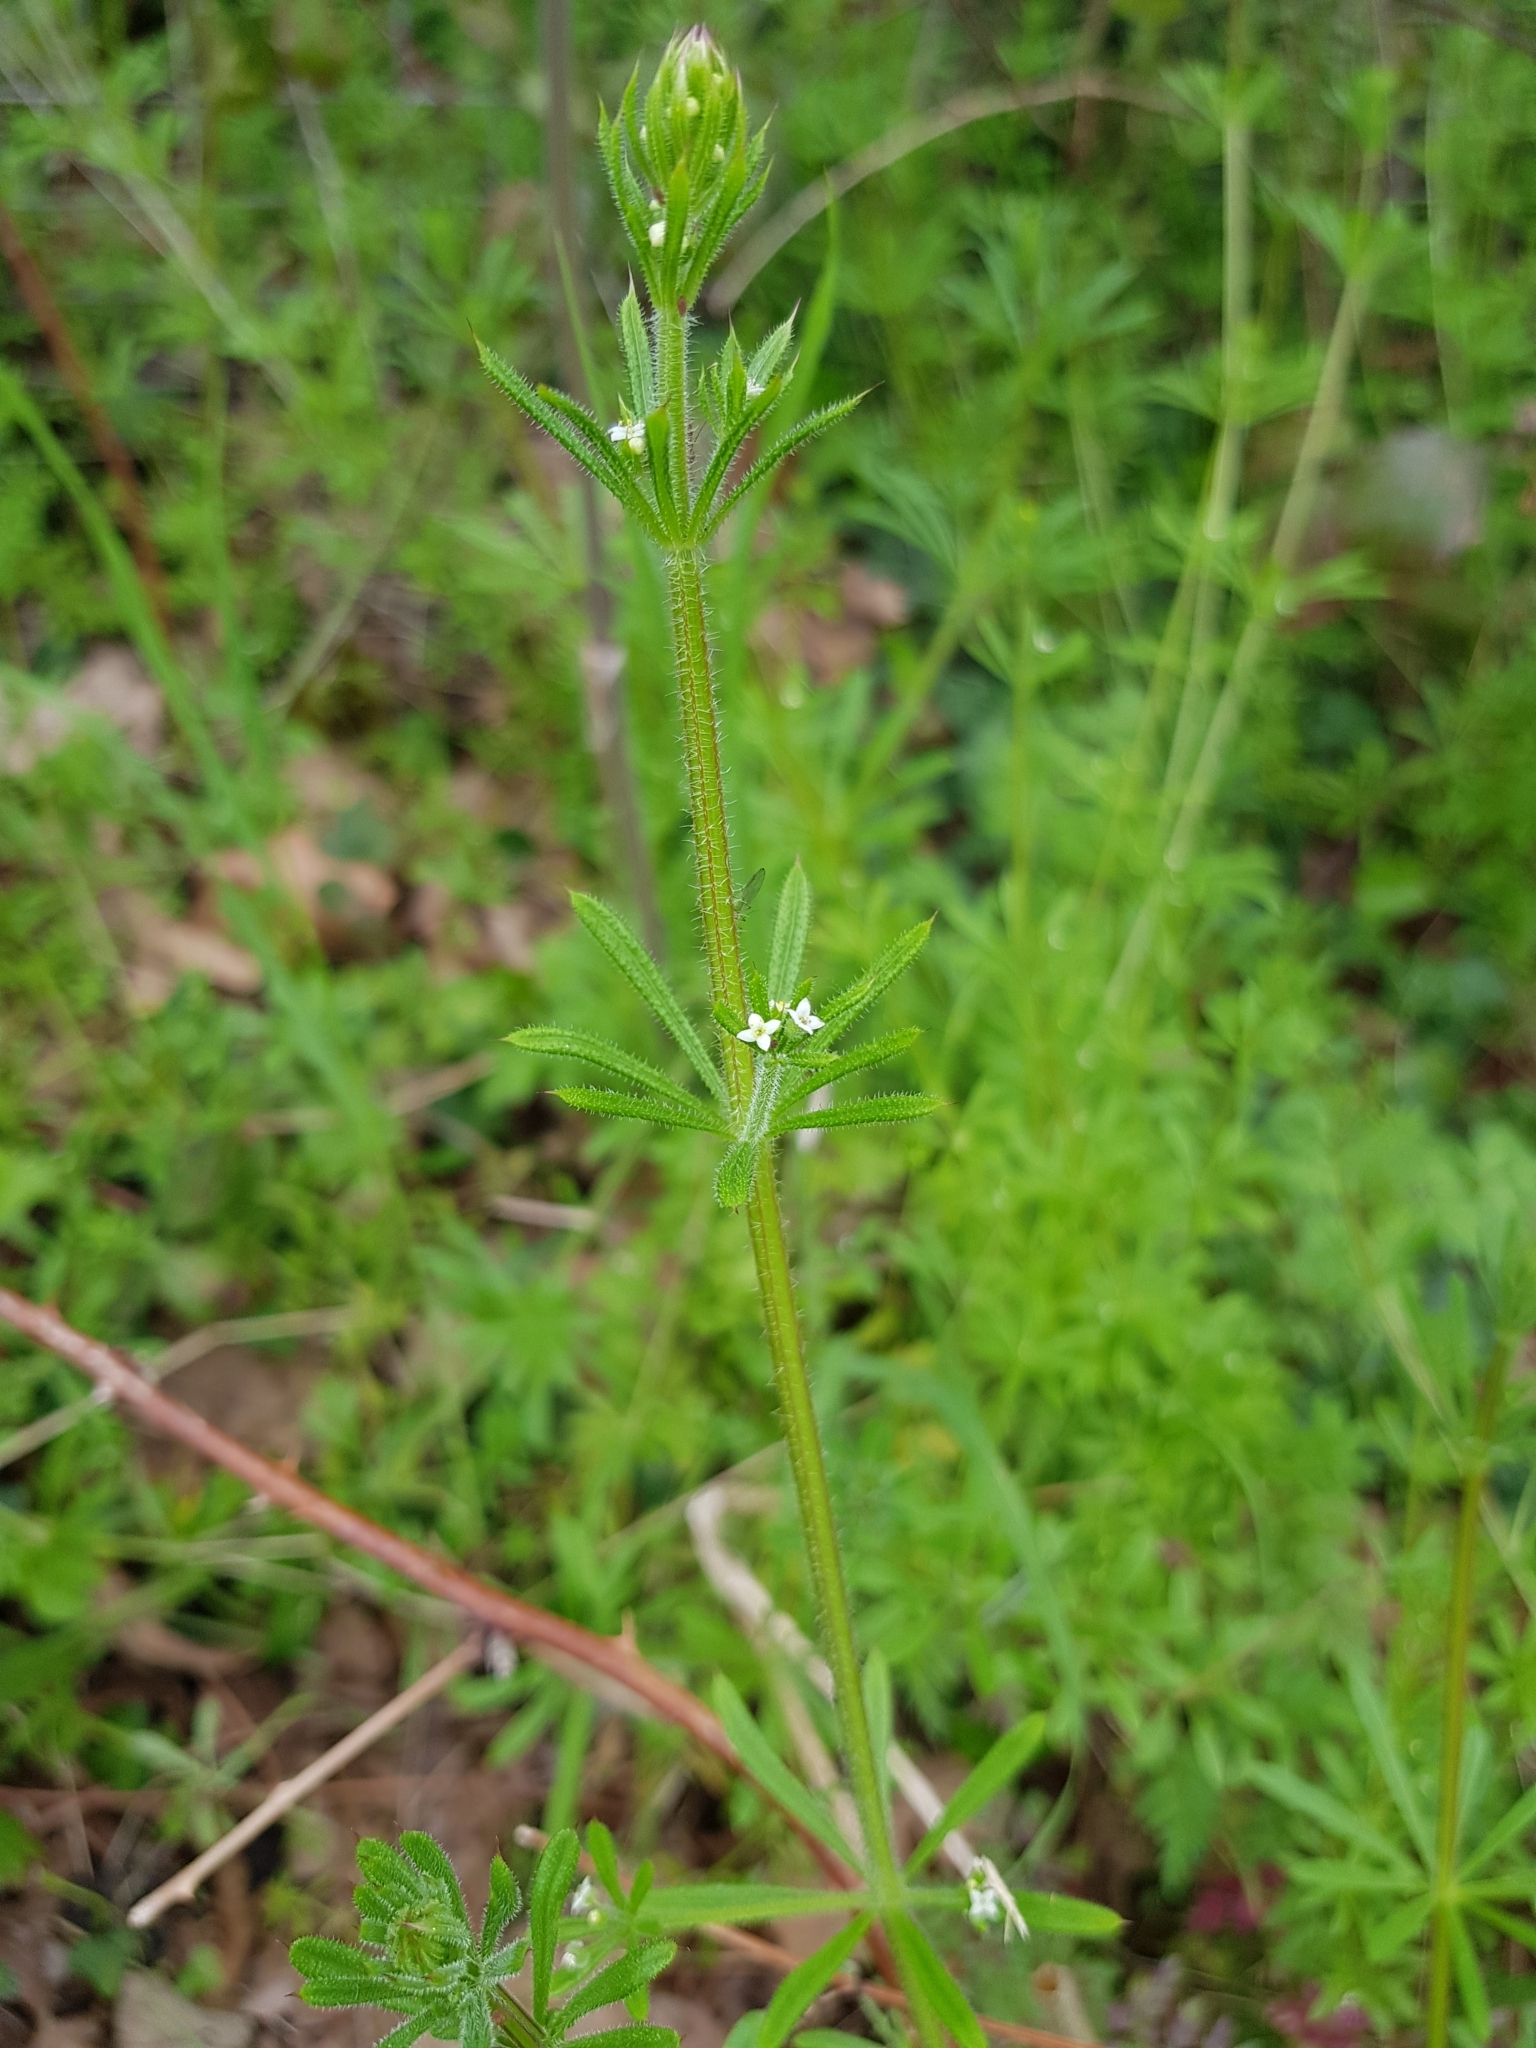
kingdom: Plantae
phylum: Tracheophyta
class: Magnoliopsida
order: Gentianales
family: Rubiaceae
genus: Galium
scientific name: Galium aparine
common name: Cleavers
